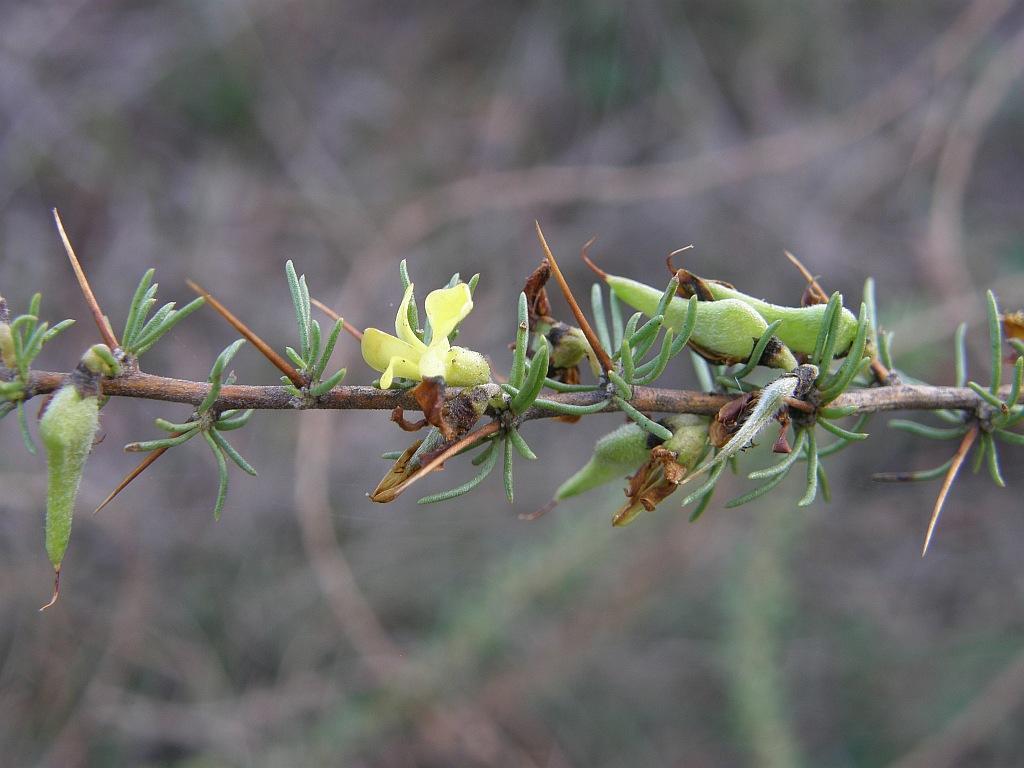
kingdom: Plantae
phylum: Tracheophyta
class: Magnoliopsida
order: Fabales
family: Fabaceae
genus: Aspalathus
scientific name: Aspalathus spinosa
